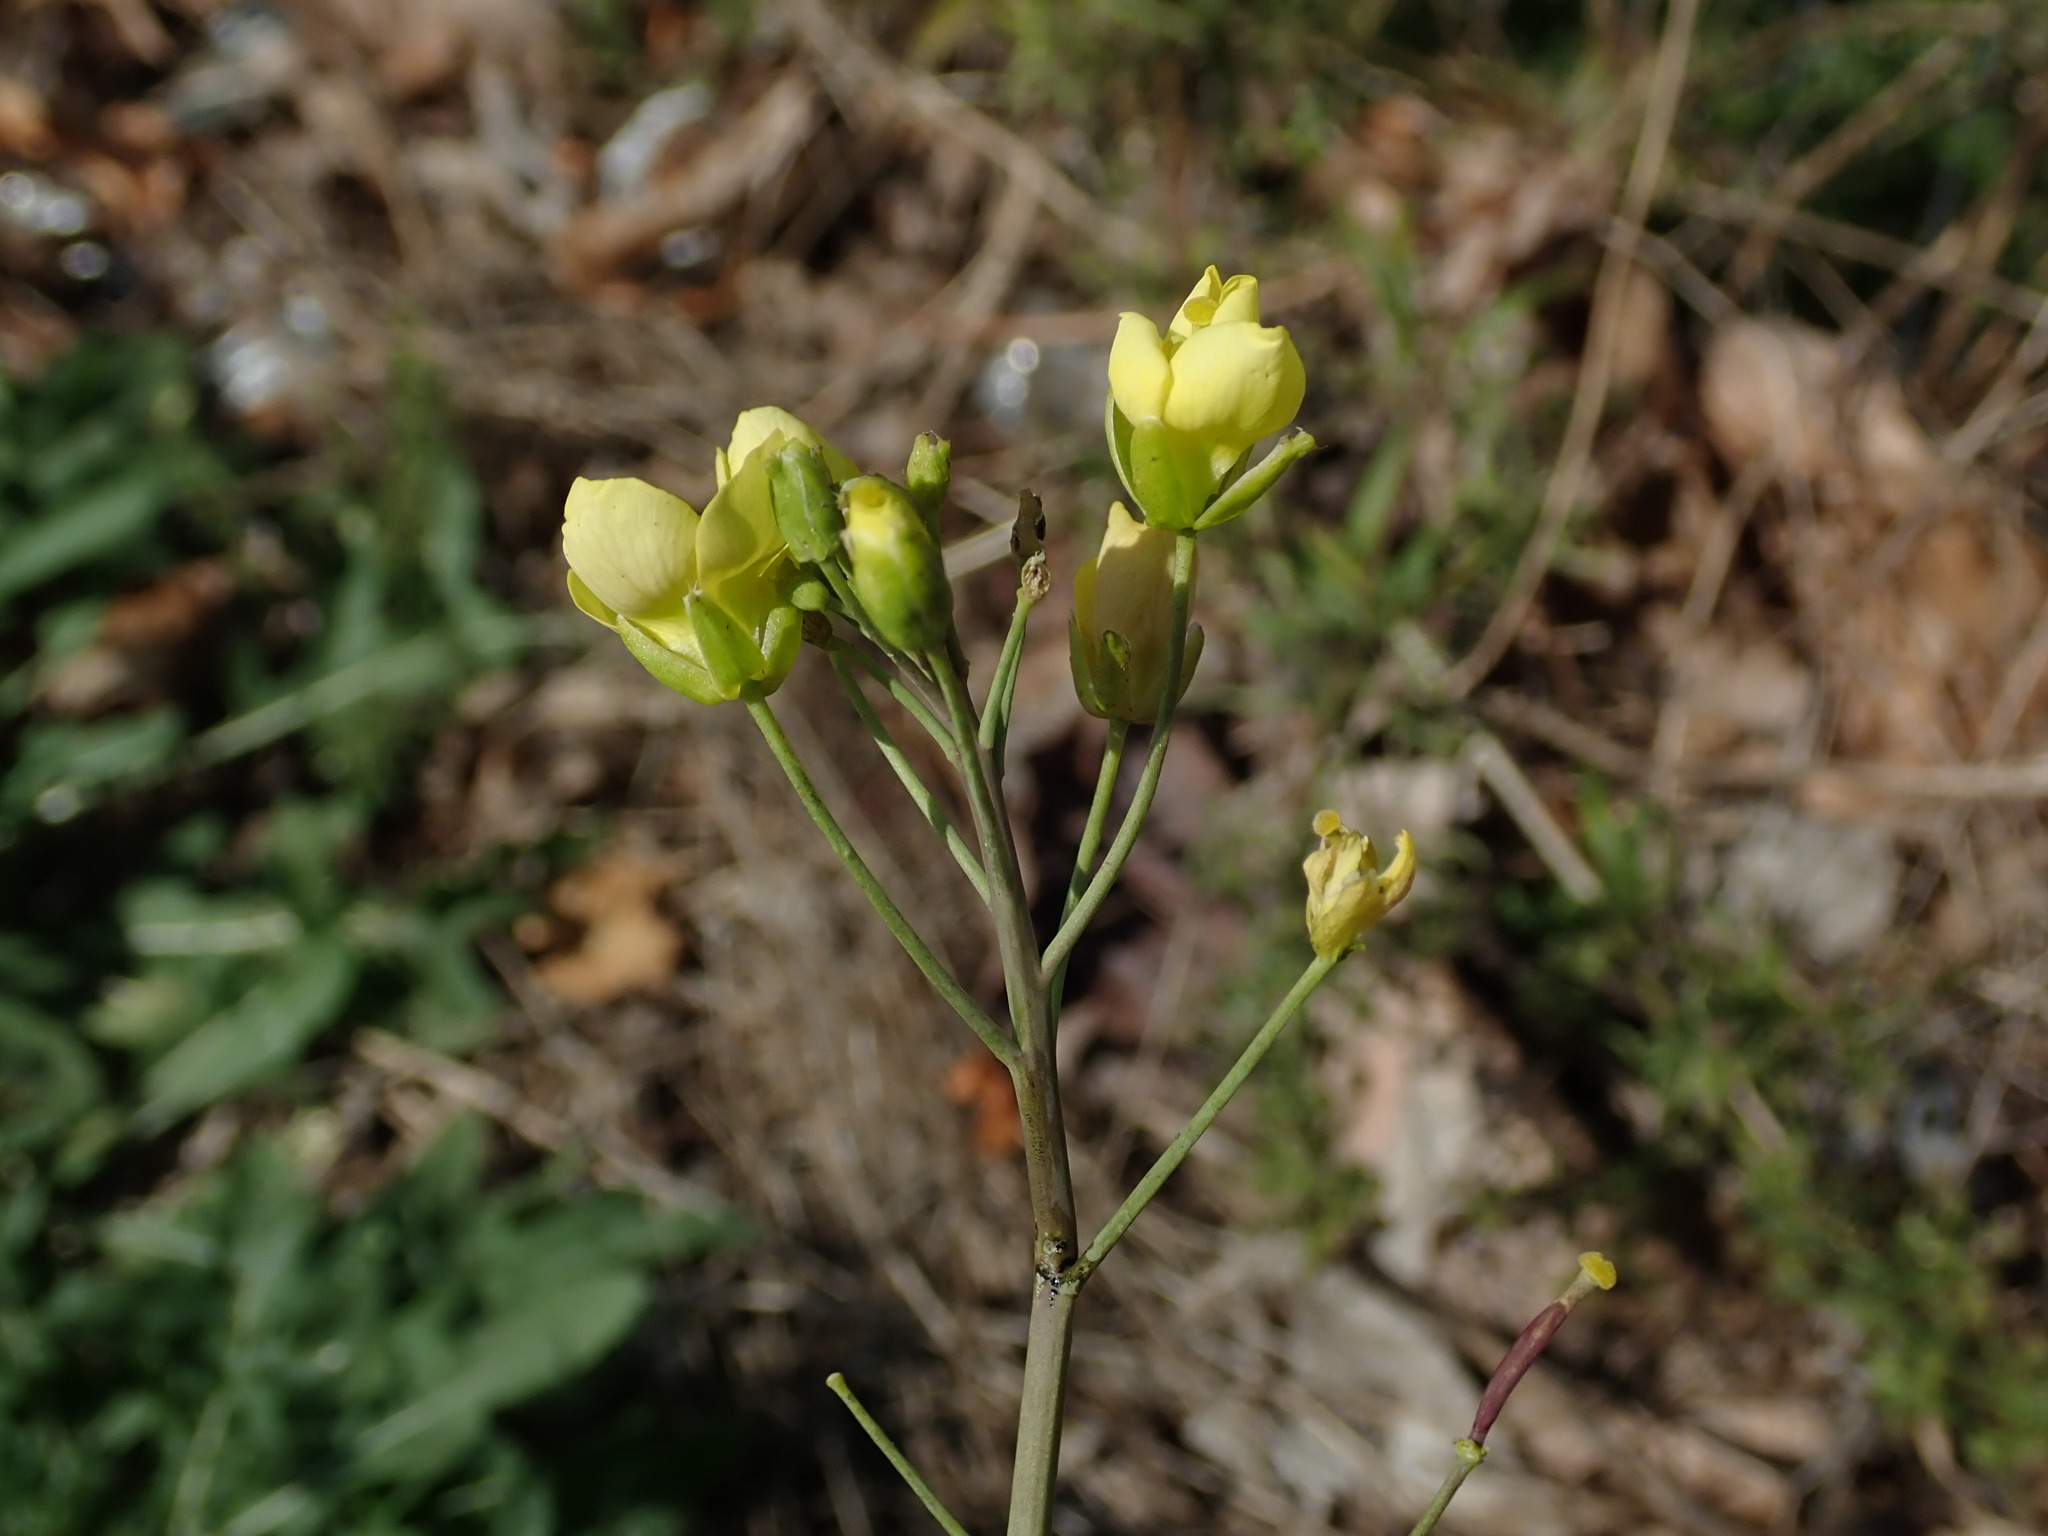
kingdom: Plantae
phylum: Tracheophyta
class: Magnoliopsida
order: Brassicales
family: Brassicaceae
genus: Diplotaxis
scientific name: Diplotaxis tenuifolia
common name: Perennial wall-rocket
